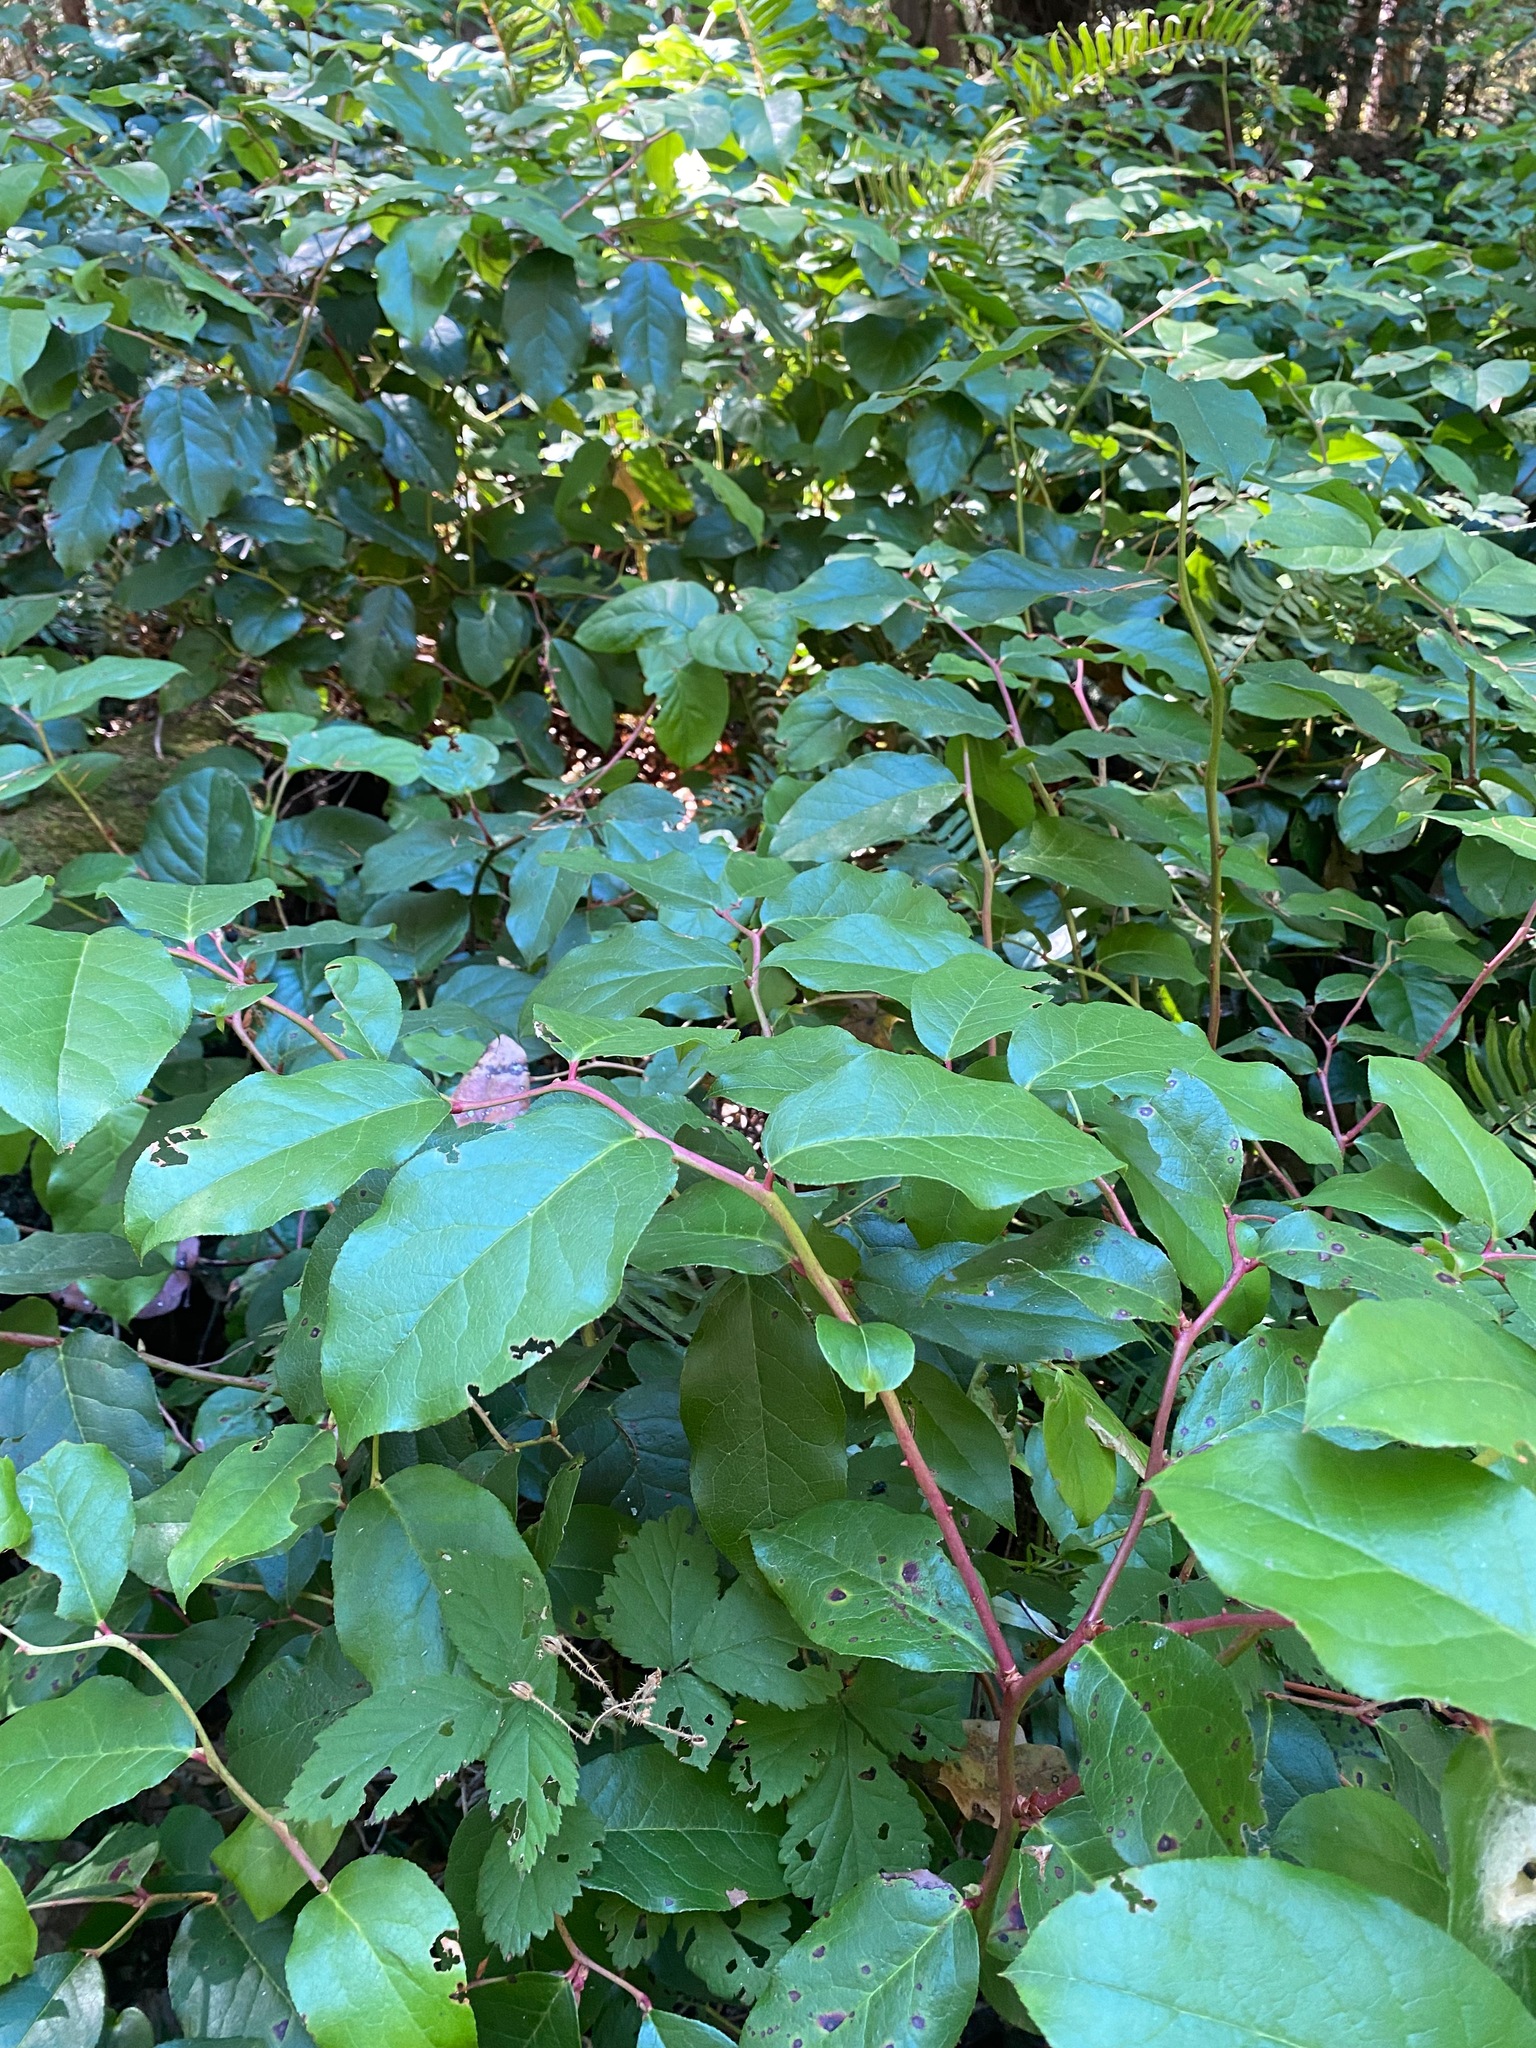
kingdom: Plantae
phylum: Tracheophyta
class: Magnoliopsida
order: Ericales
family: Ericaceae
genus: Gaultheria
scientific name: Gaultheria shallon
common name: Shallon
